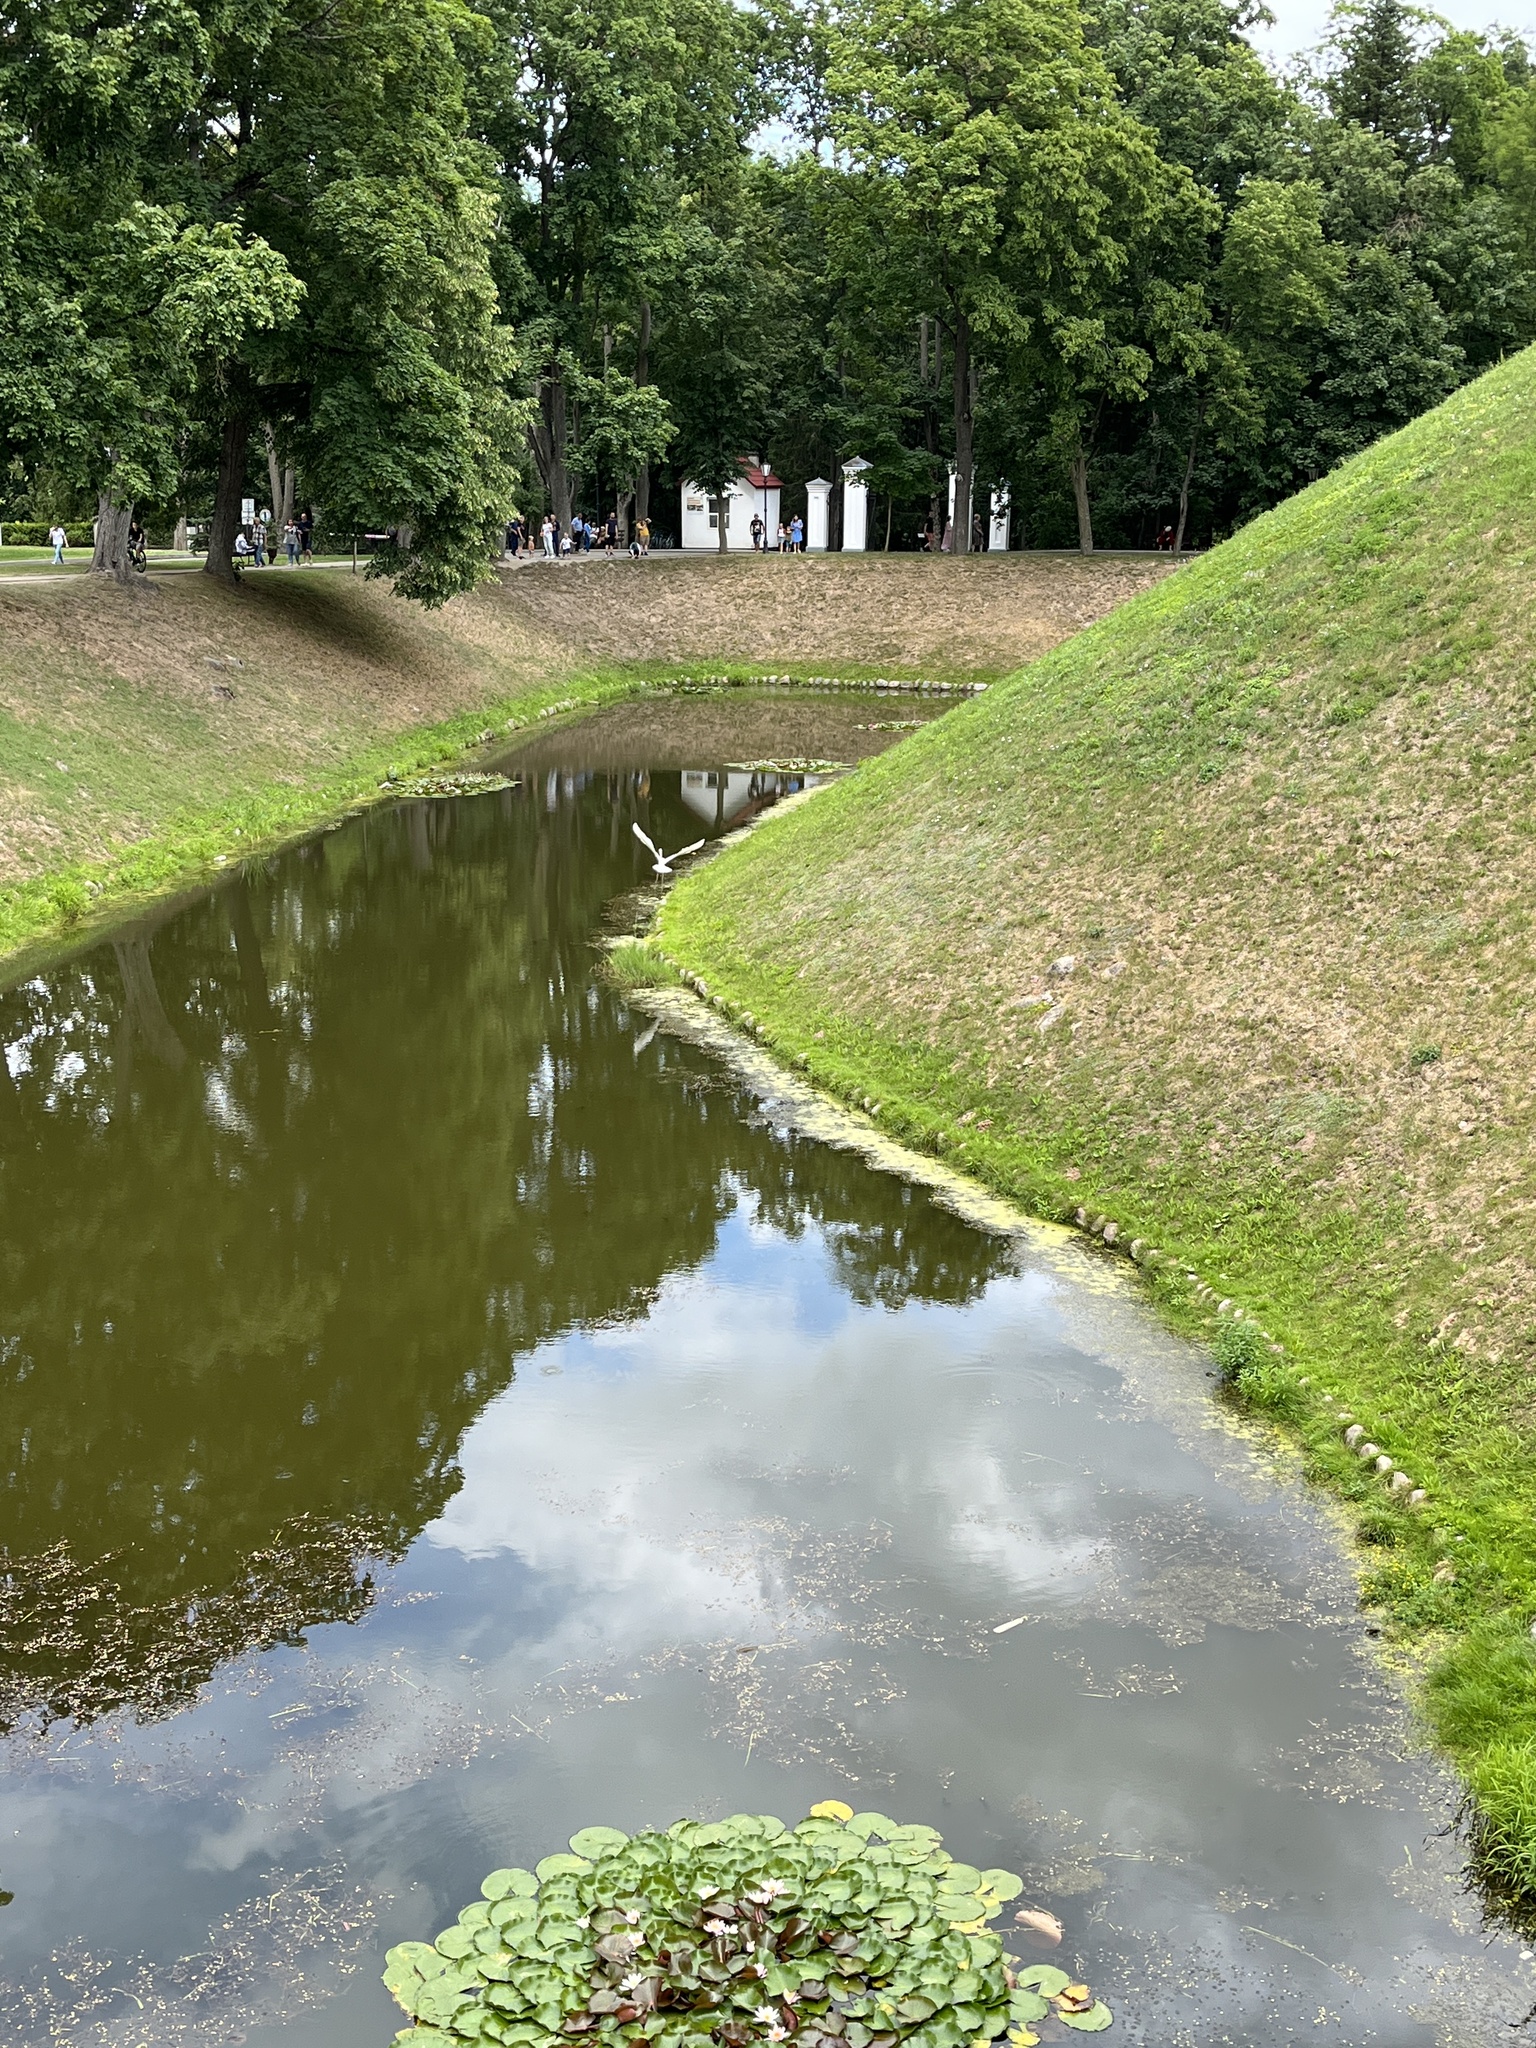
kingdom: Animalia
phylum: Chordata
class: Aves
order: Pelecaniformes
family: Ardeidae
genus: Ardea
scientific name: Ardea alba
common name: Great egret
